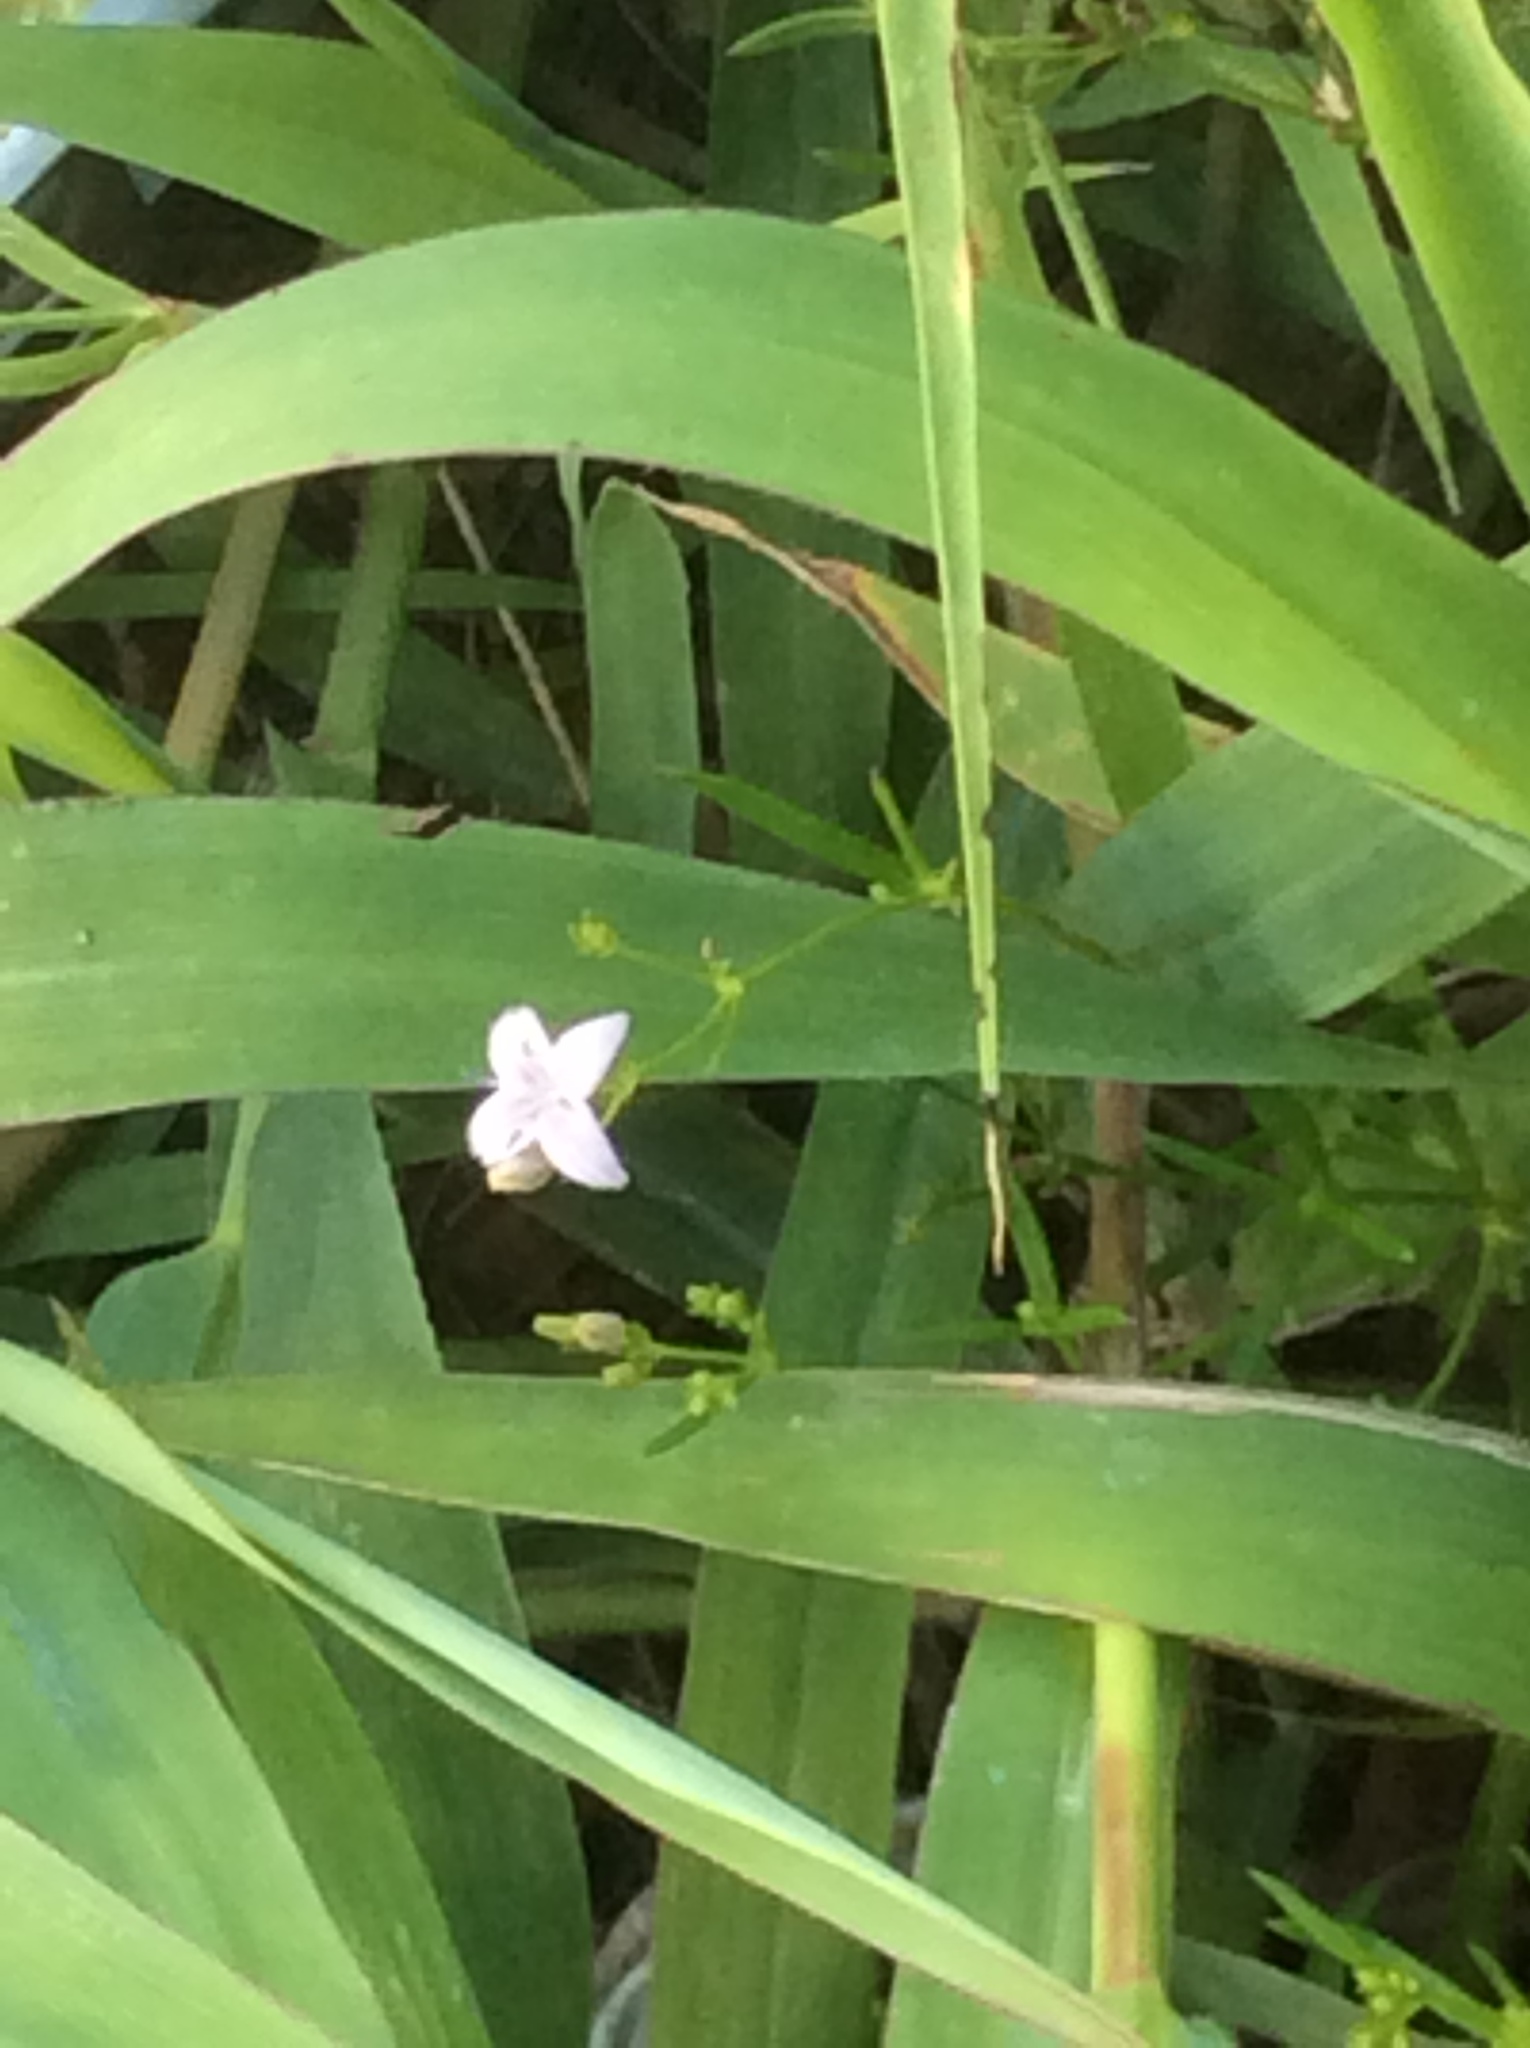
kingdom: Plantae
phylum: Tracheophyta
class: Magnoliopsida
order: Gentianales
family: Rubiaceae
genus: Stenaria
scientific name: Stenaria nigricans
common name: Diamondflowers
